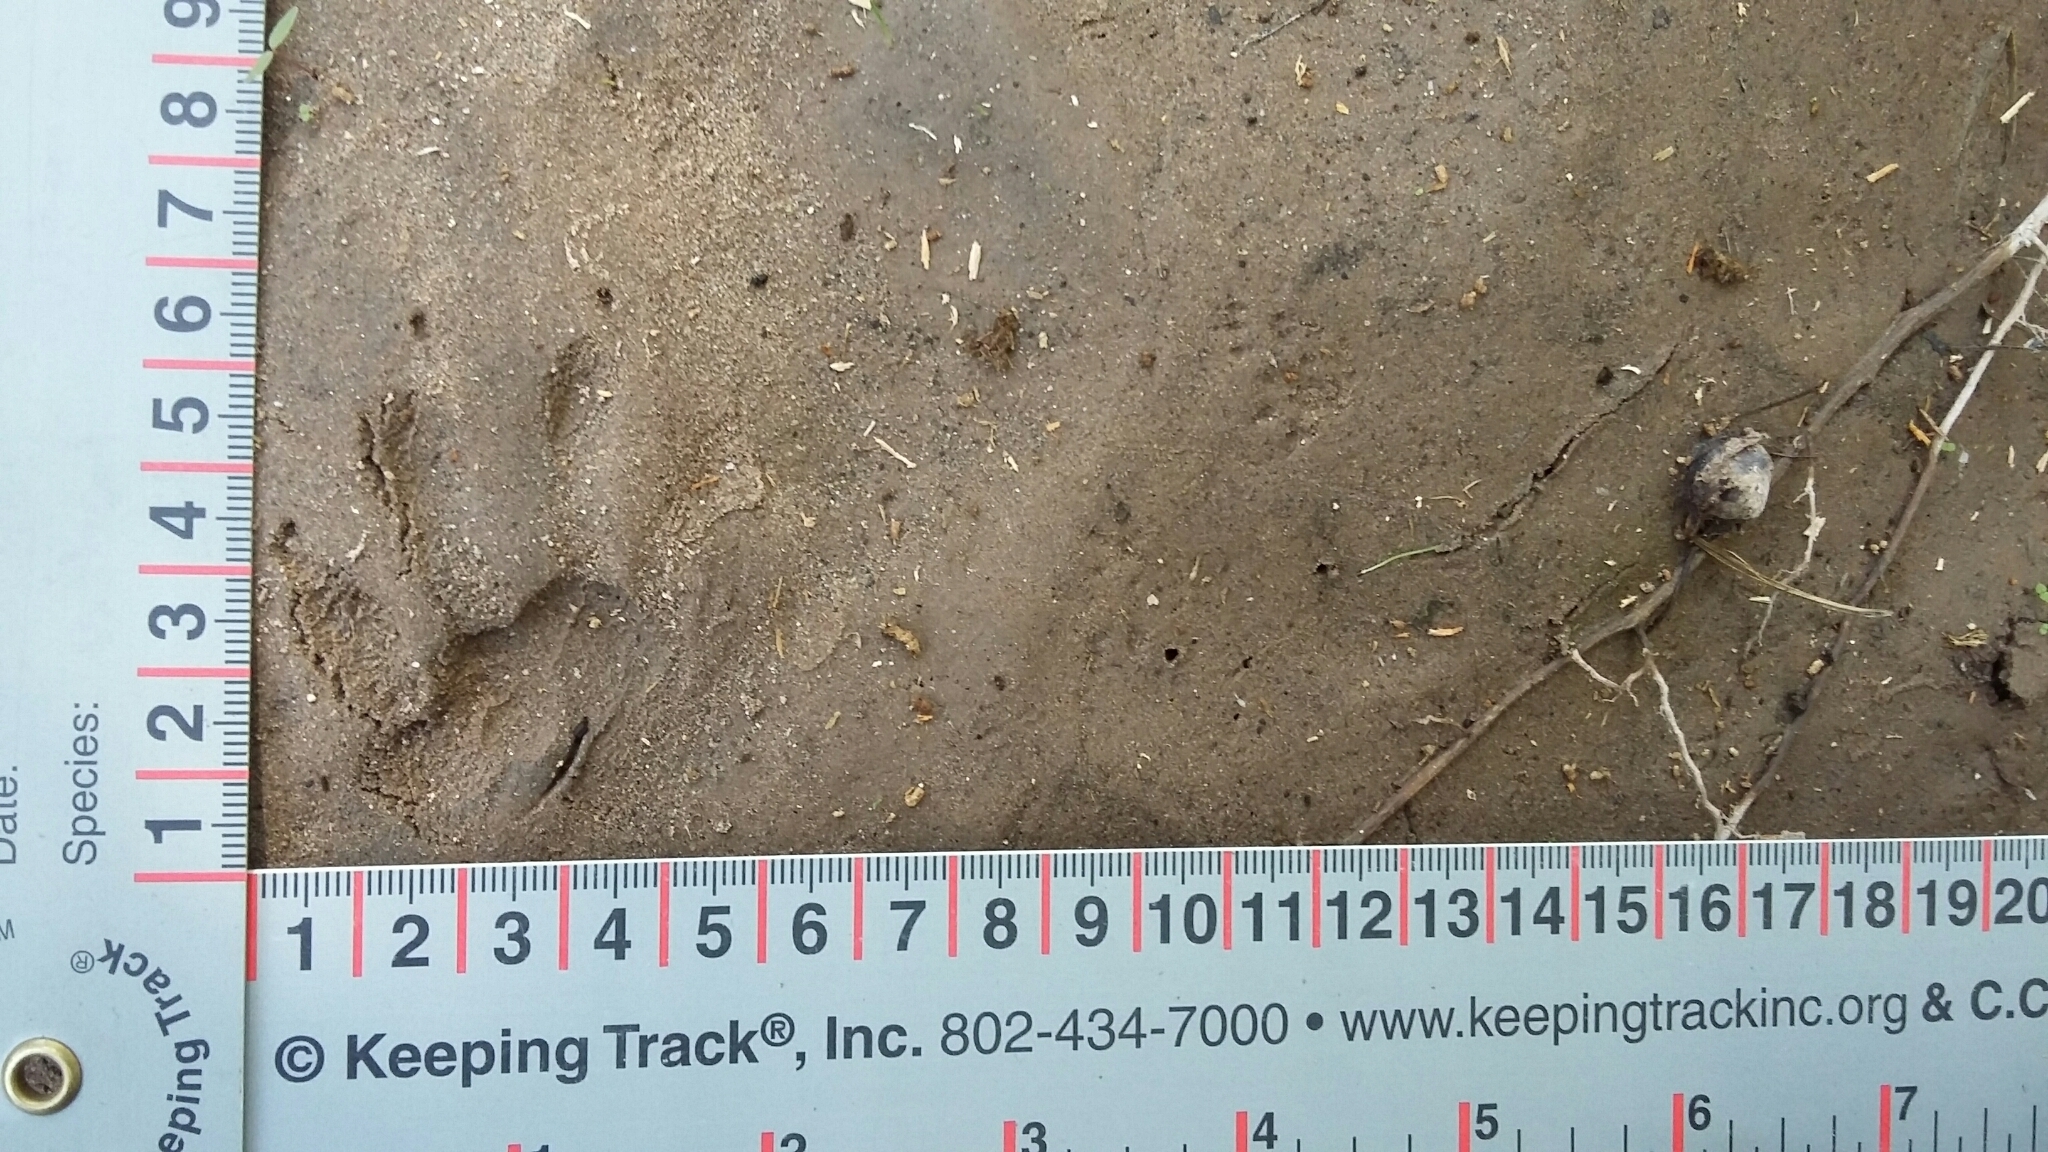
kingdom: Animalia
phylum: Chordata
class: Mammalia
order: Carnivora
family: Procyonidae
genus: Procyon
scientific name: Procyon lotor
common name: Raccoon
